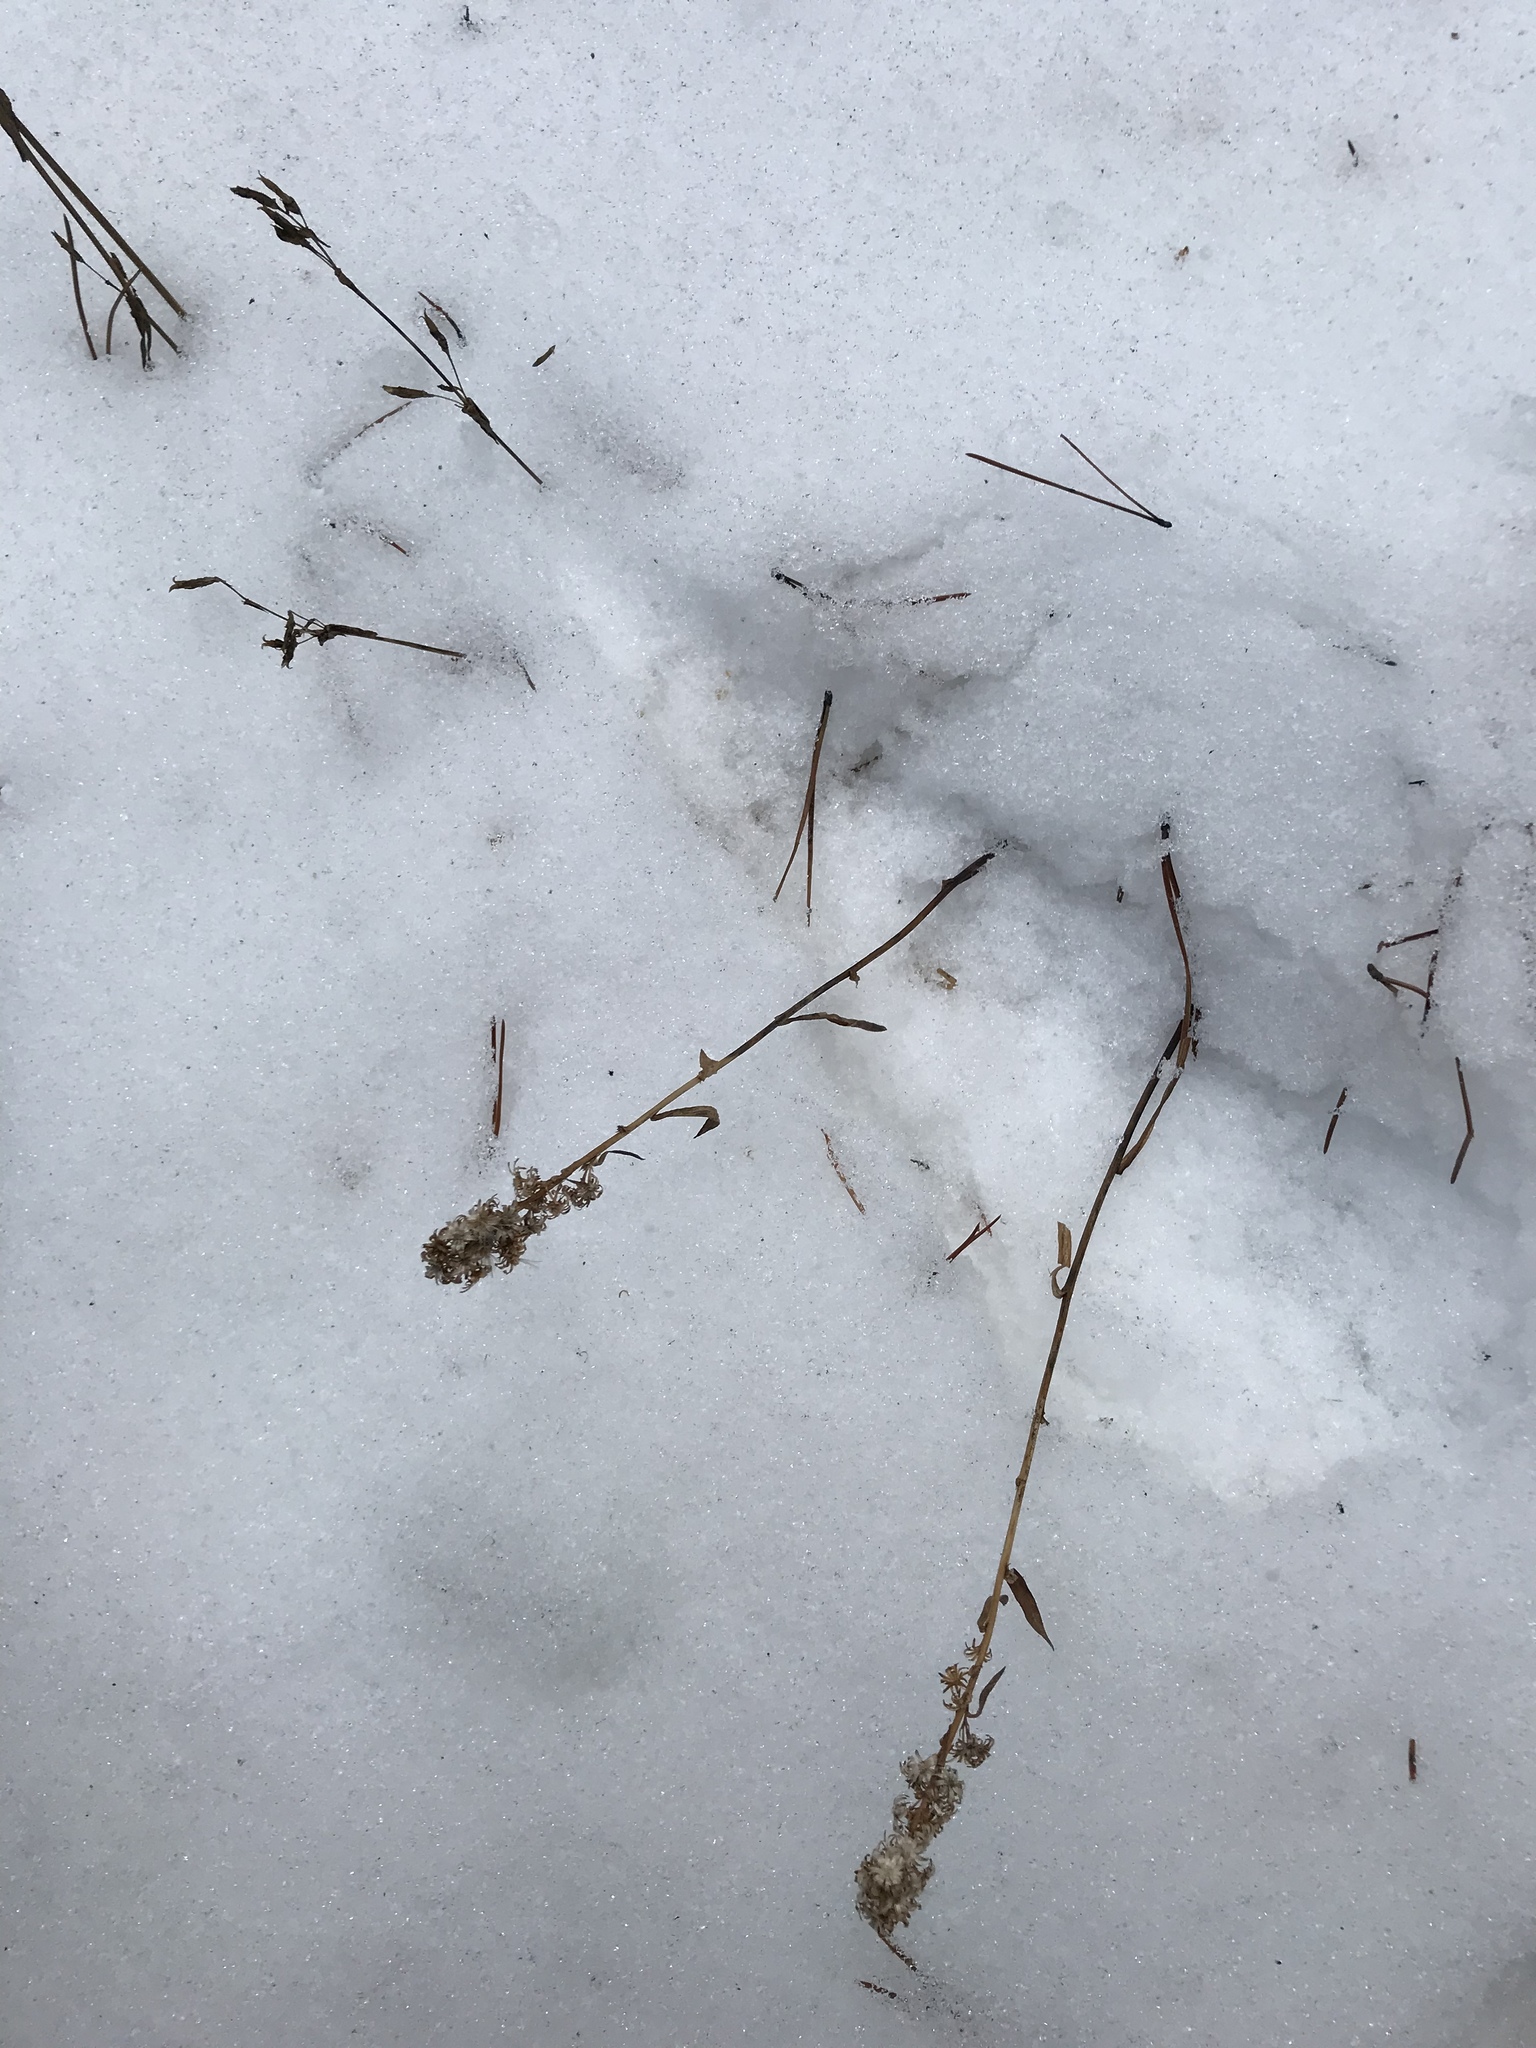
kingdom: Plantae
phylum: Tracheophyta
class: Magnoliopsida
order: Asterales
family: Asteraceae
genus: Solidago
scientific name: Solidago simplex
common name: Sticky goldenrod
